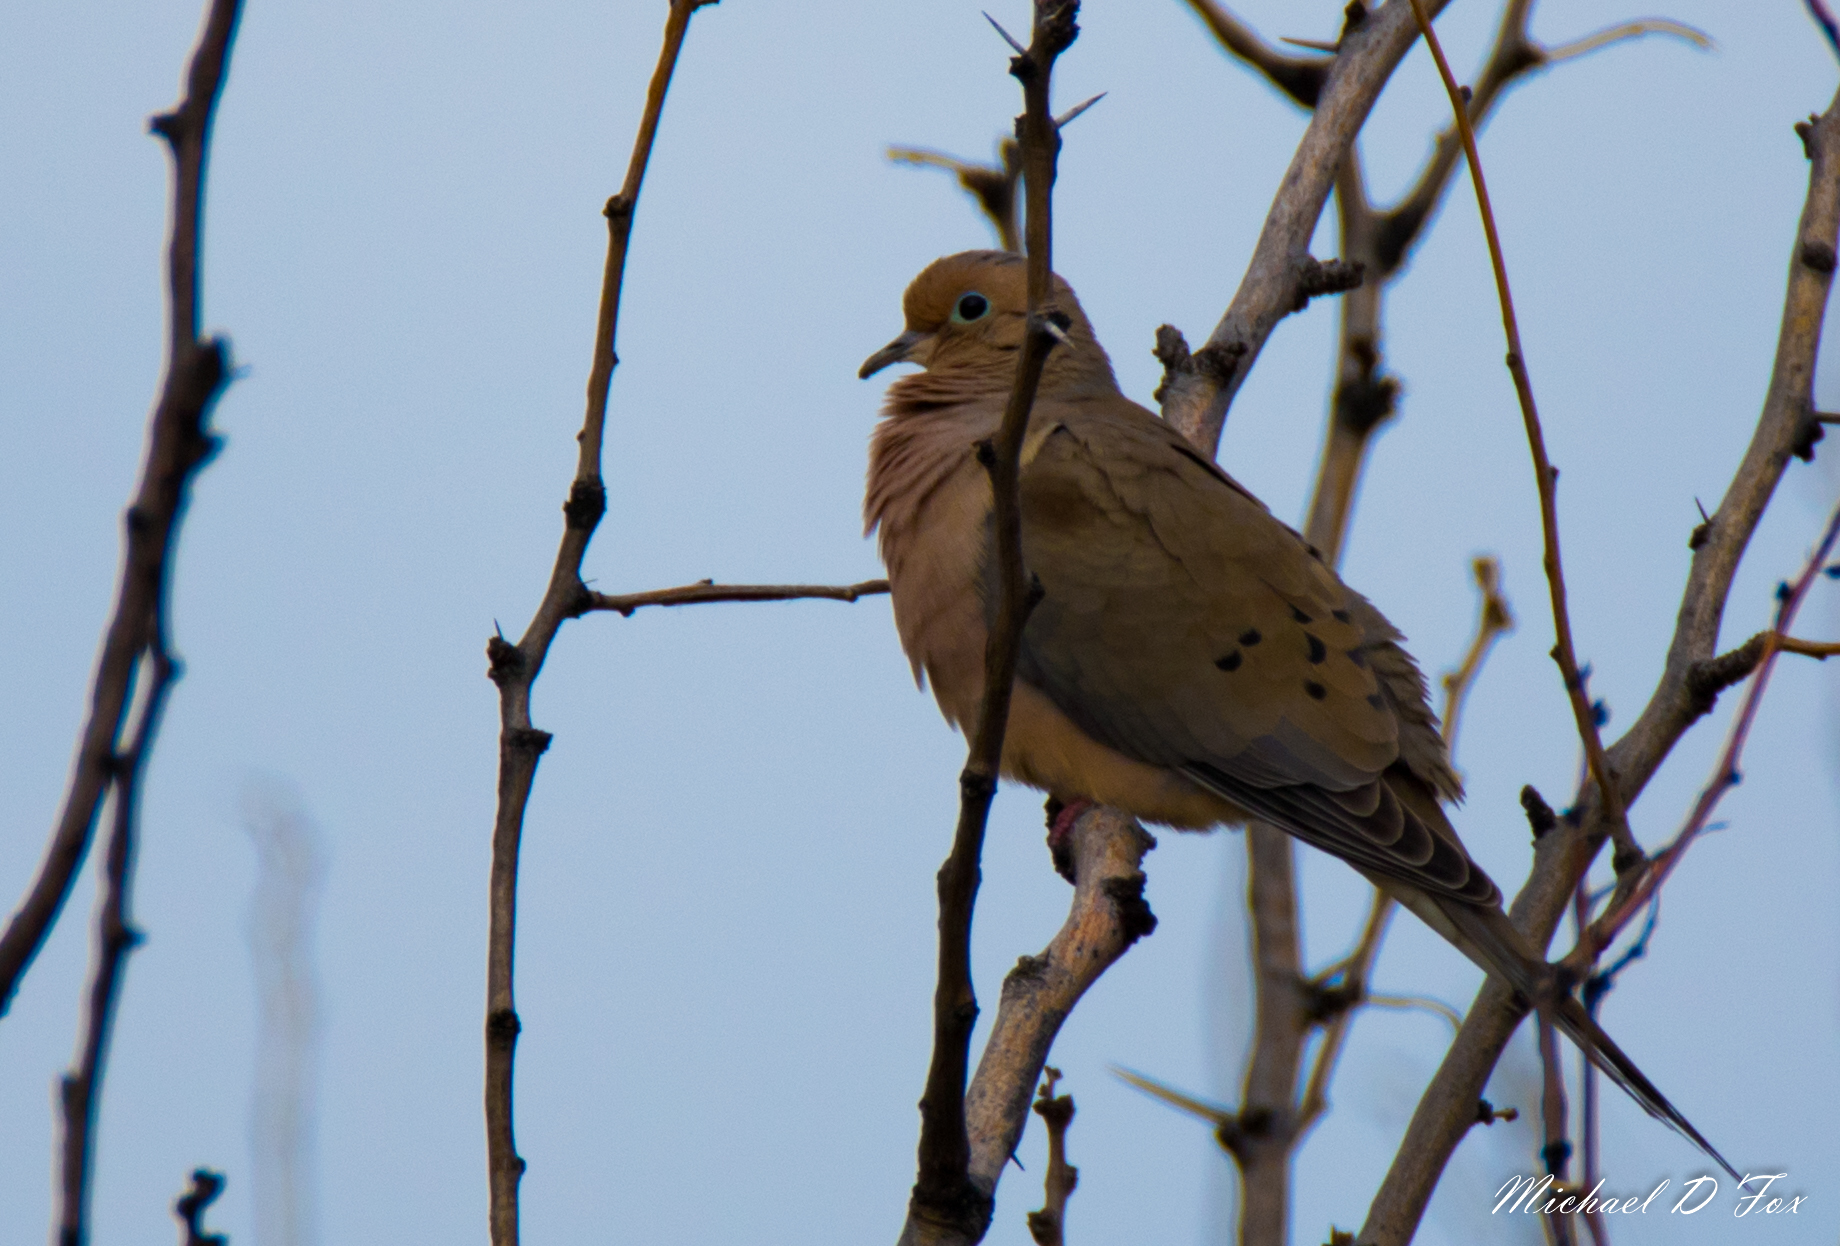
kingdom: Animalia
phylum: Chordata
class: Aves
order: Columbiformes
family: Columbidae
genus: Zenaida
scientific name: Zenaida macroura
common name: Mourning dove
